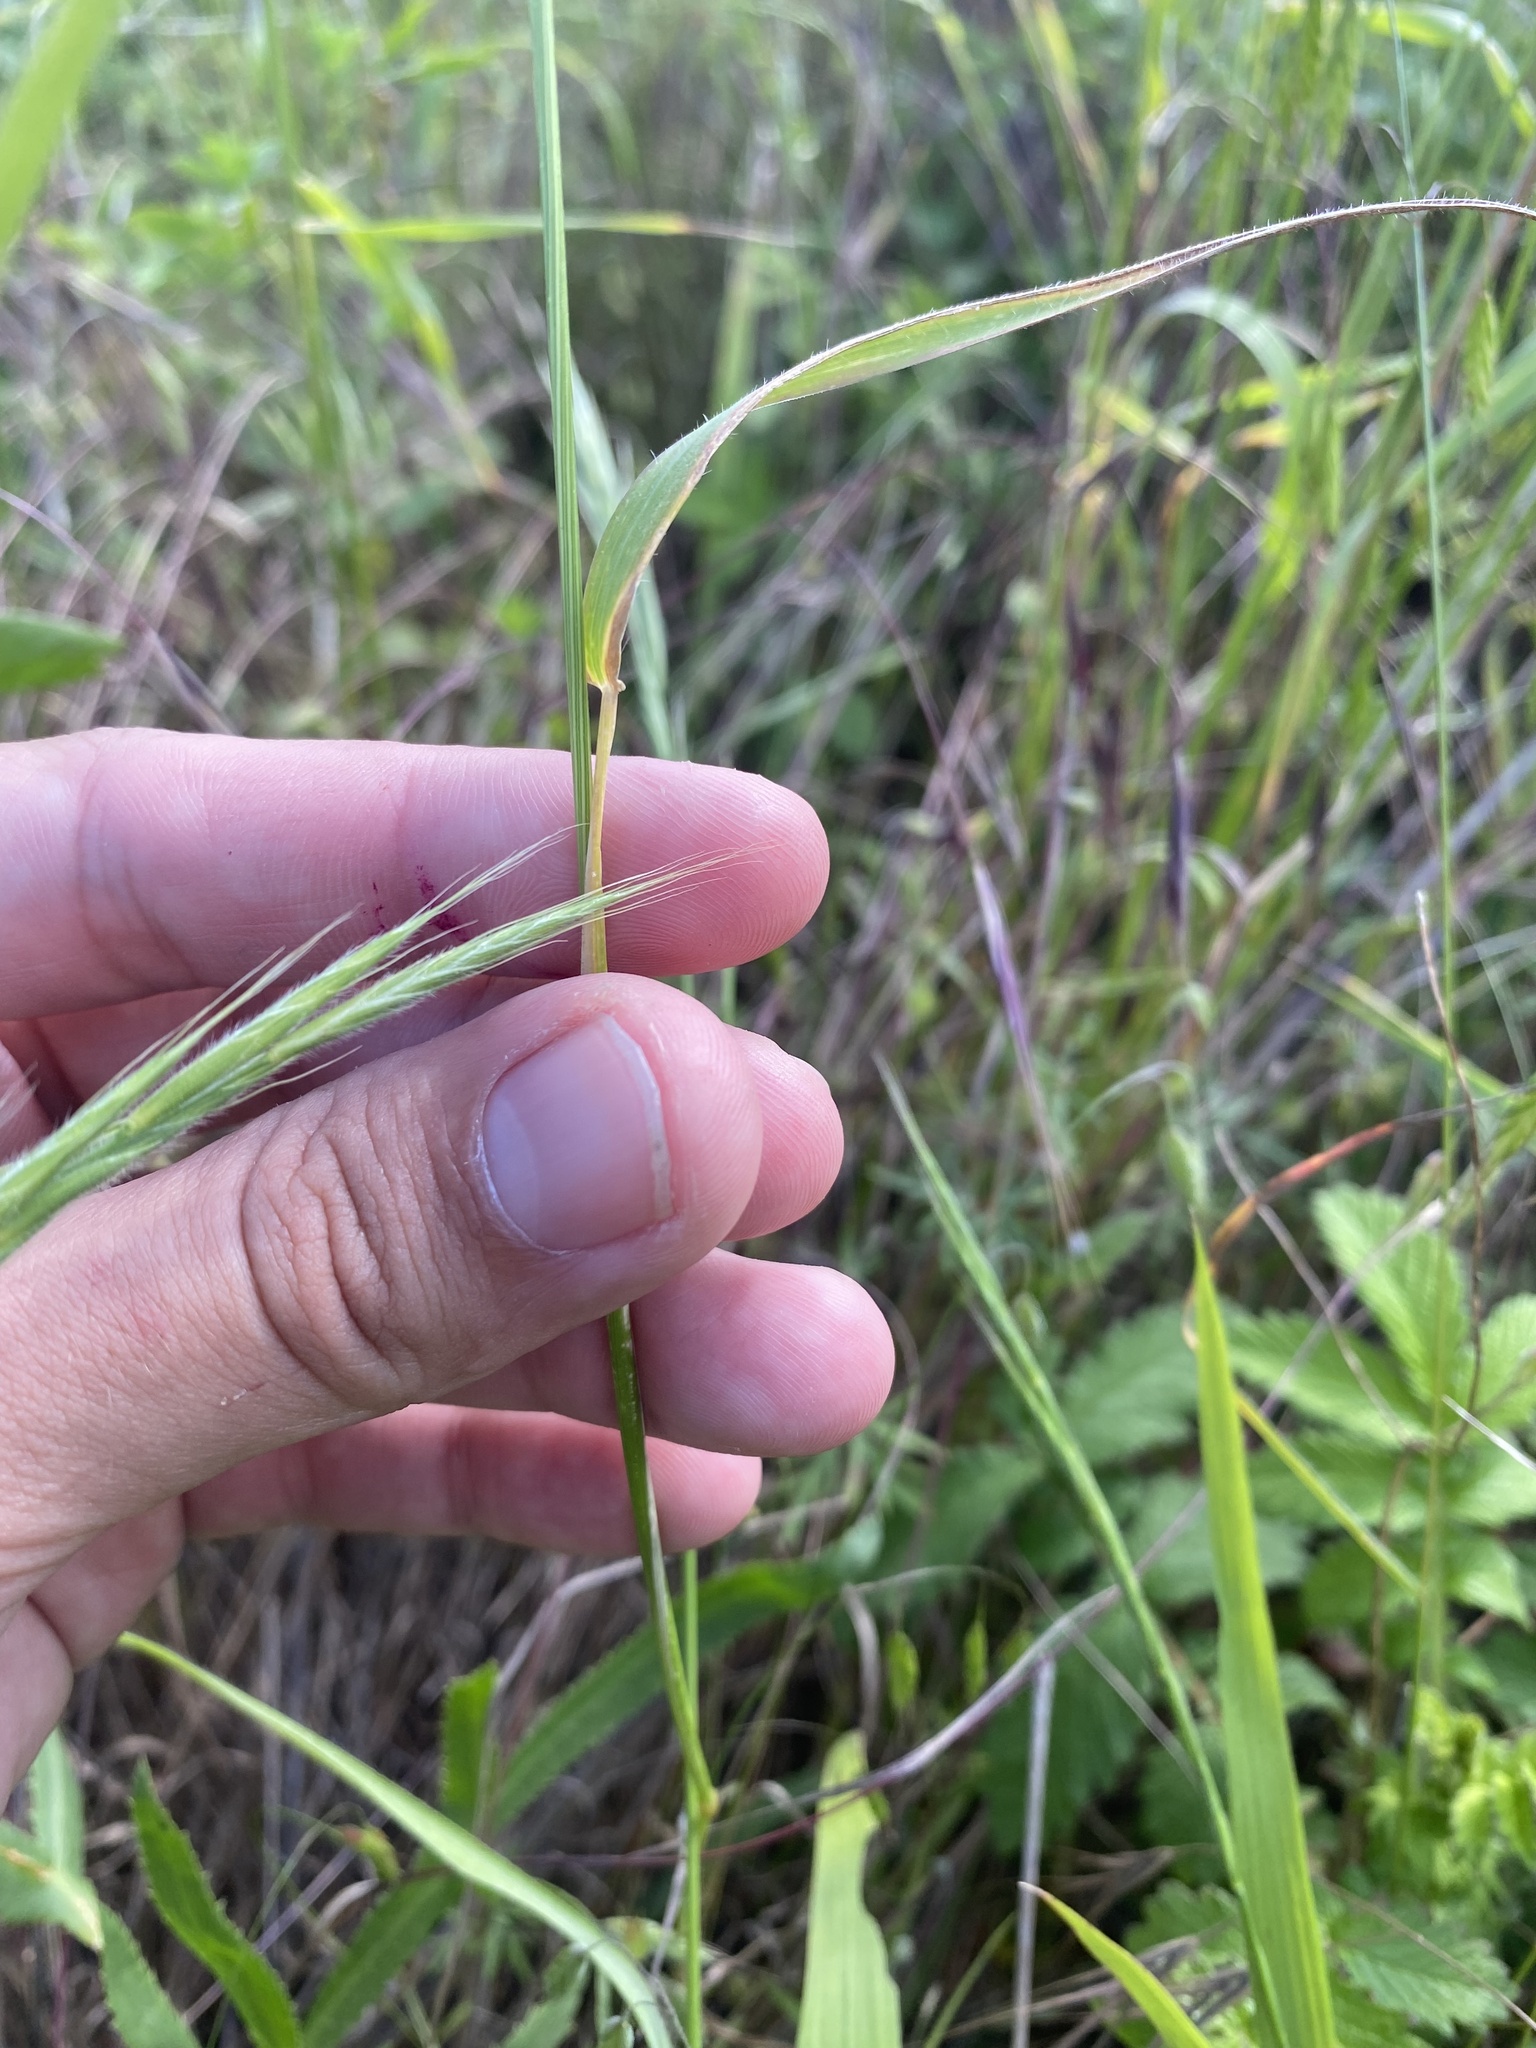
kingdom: Plantae
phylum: Tracheophyta
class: Liliopsida
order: Poales
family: Poaceae
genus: Aegilops
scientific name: Aegilops cylindrica
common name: Jointed goatgrass
